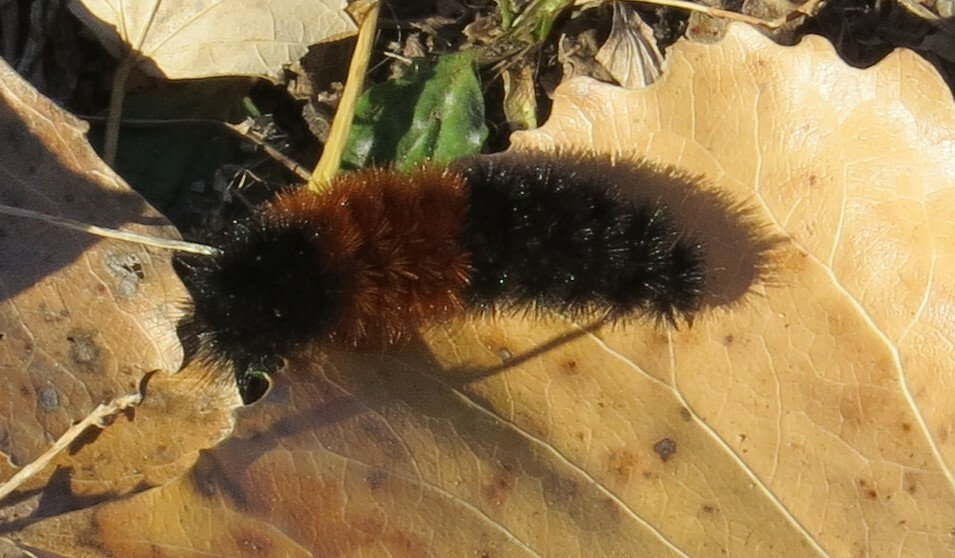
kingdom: Animalia
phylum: Arthropoda
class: Insecta
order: Lepidoptera
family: Erebidae
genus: Pyrrharctia
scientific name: Pyrrharctia isabella
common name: Isabella tiger moth
